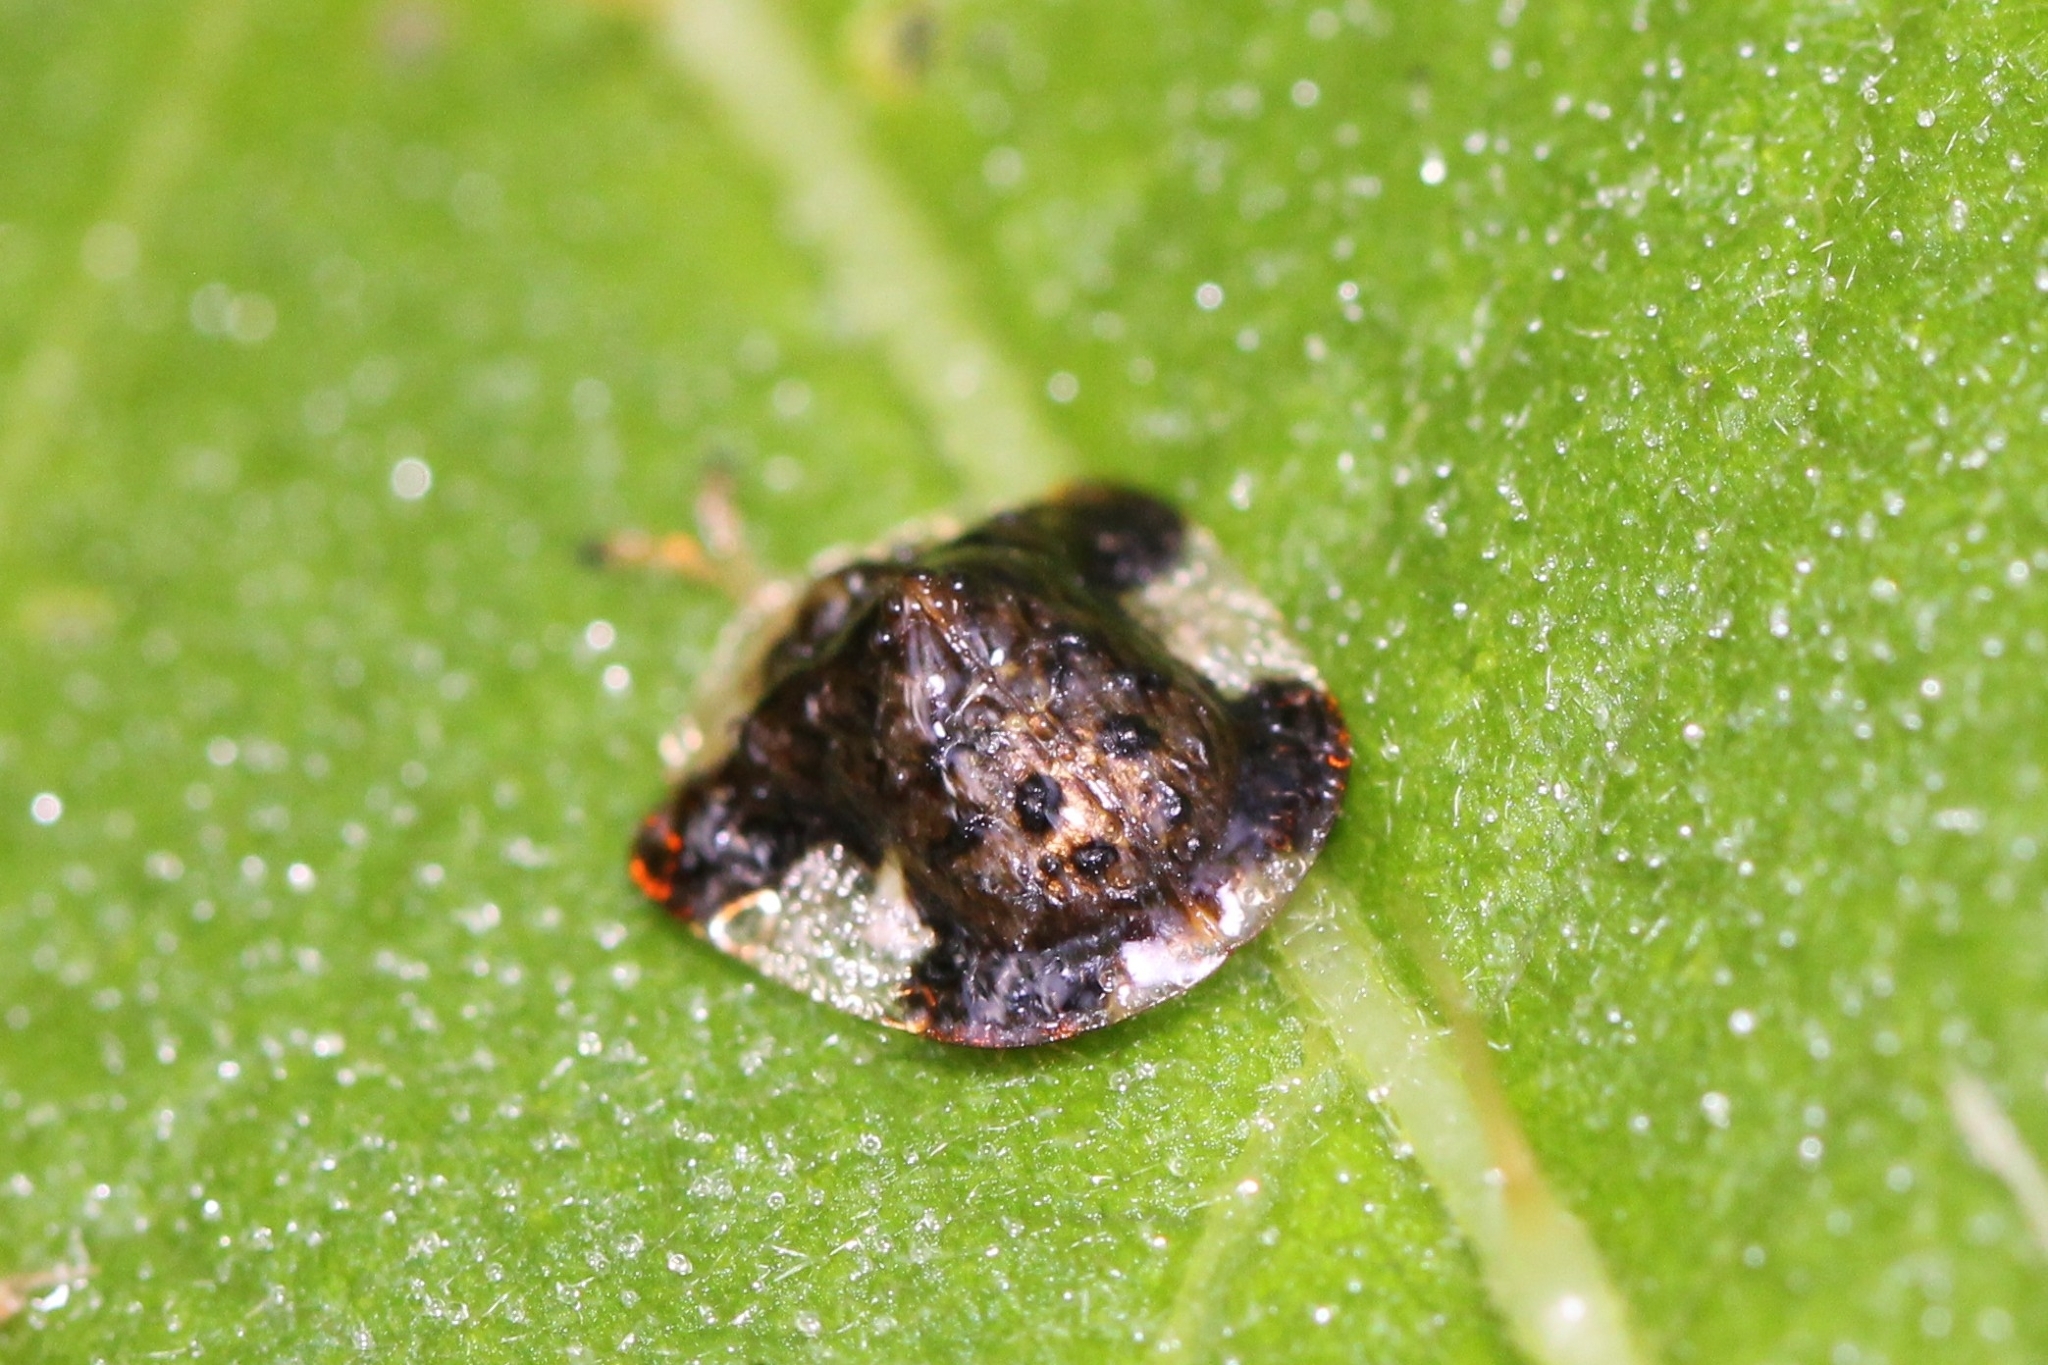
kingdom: Animalia
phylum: Arthropoda
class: Insecta
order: Coleoptera
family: Chrysomelidae
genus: Helocassis
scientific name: Helocassis clavata
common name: Clavate tortoise beetle
